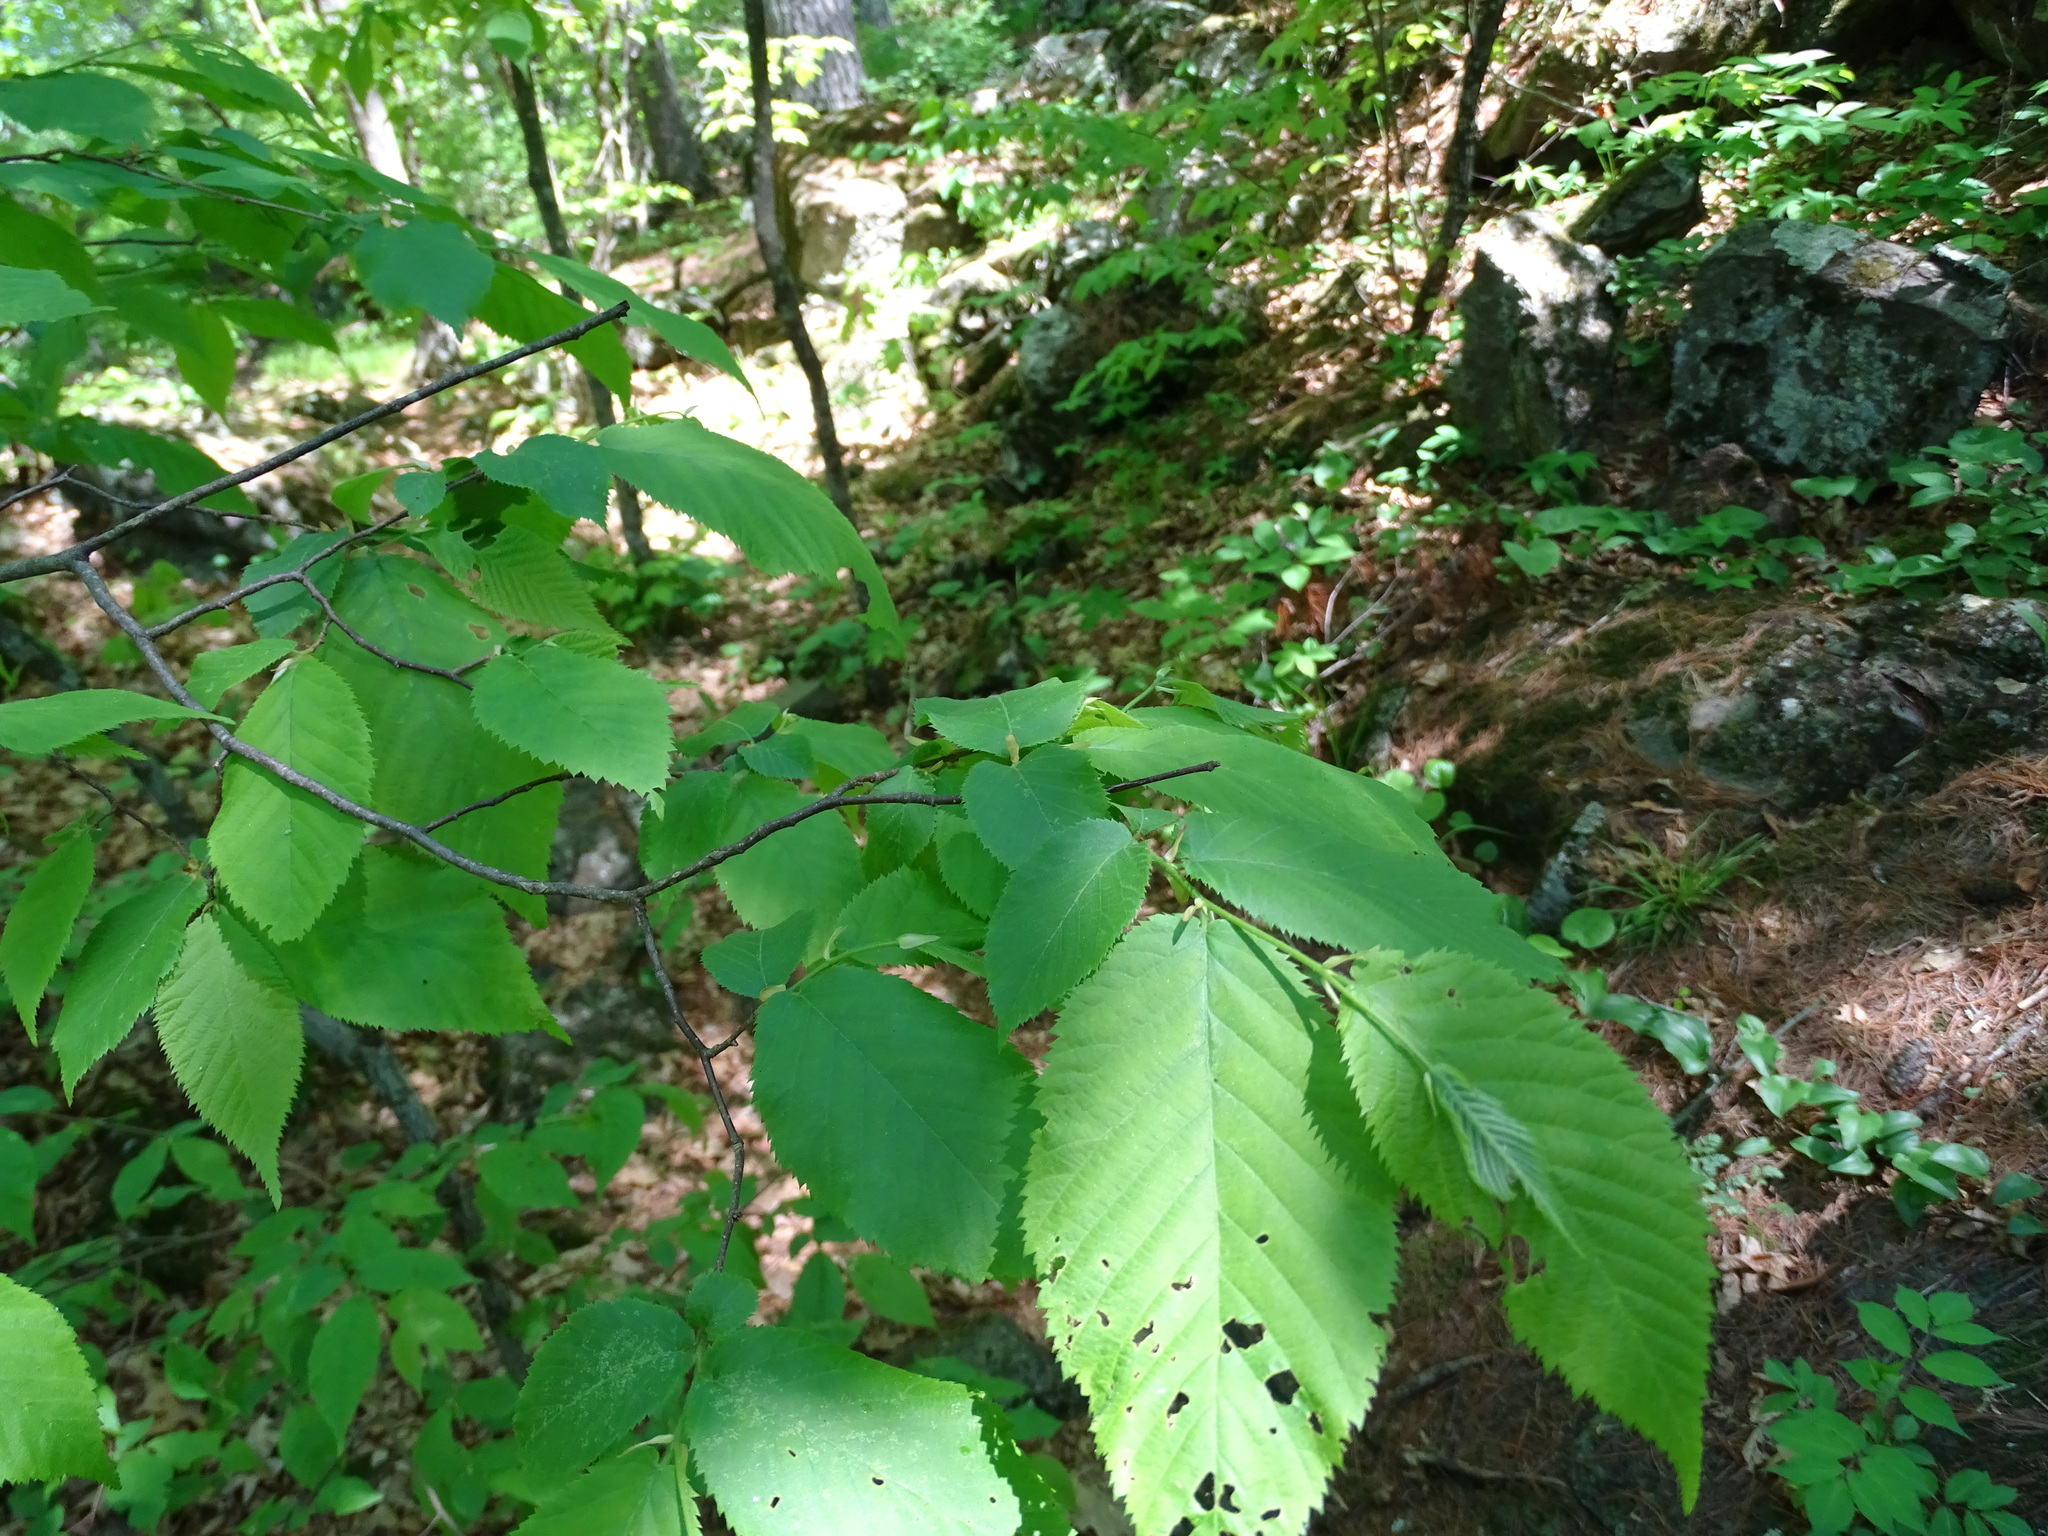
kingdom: Plantae
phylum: Tracheophyta
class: Magnoliopsida
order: Fagales
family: Betulaceae
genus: Carpinus
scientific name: Carpinus caroliniana
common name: American hornbeam
